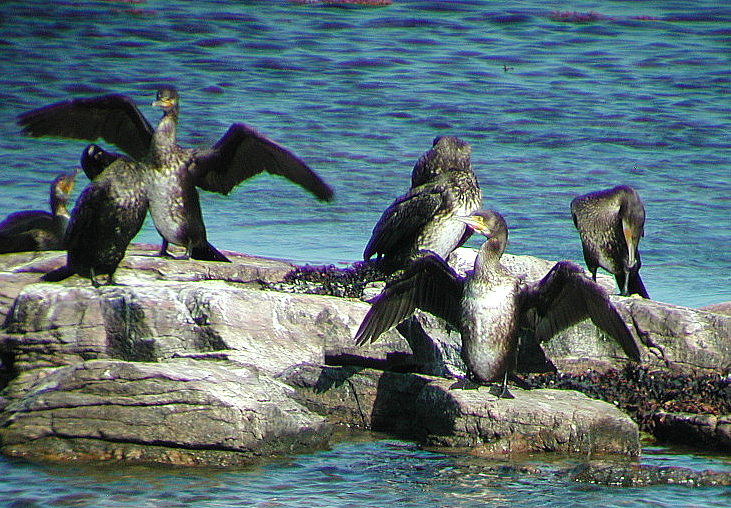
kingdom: Animalia
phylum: Chordata
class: Aves
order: Suliformes
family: Phalacrocoracidae
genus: Phalacrocorax
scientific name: Phalacrocorax carbo
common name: Great cormorant
